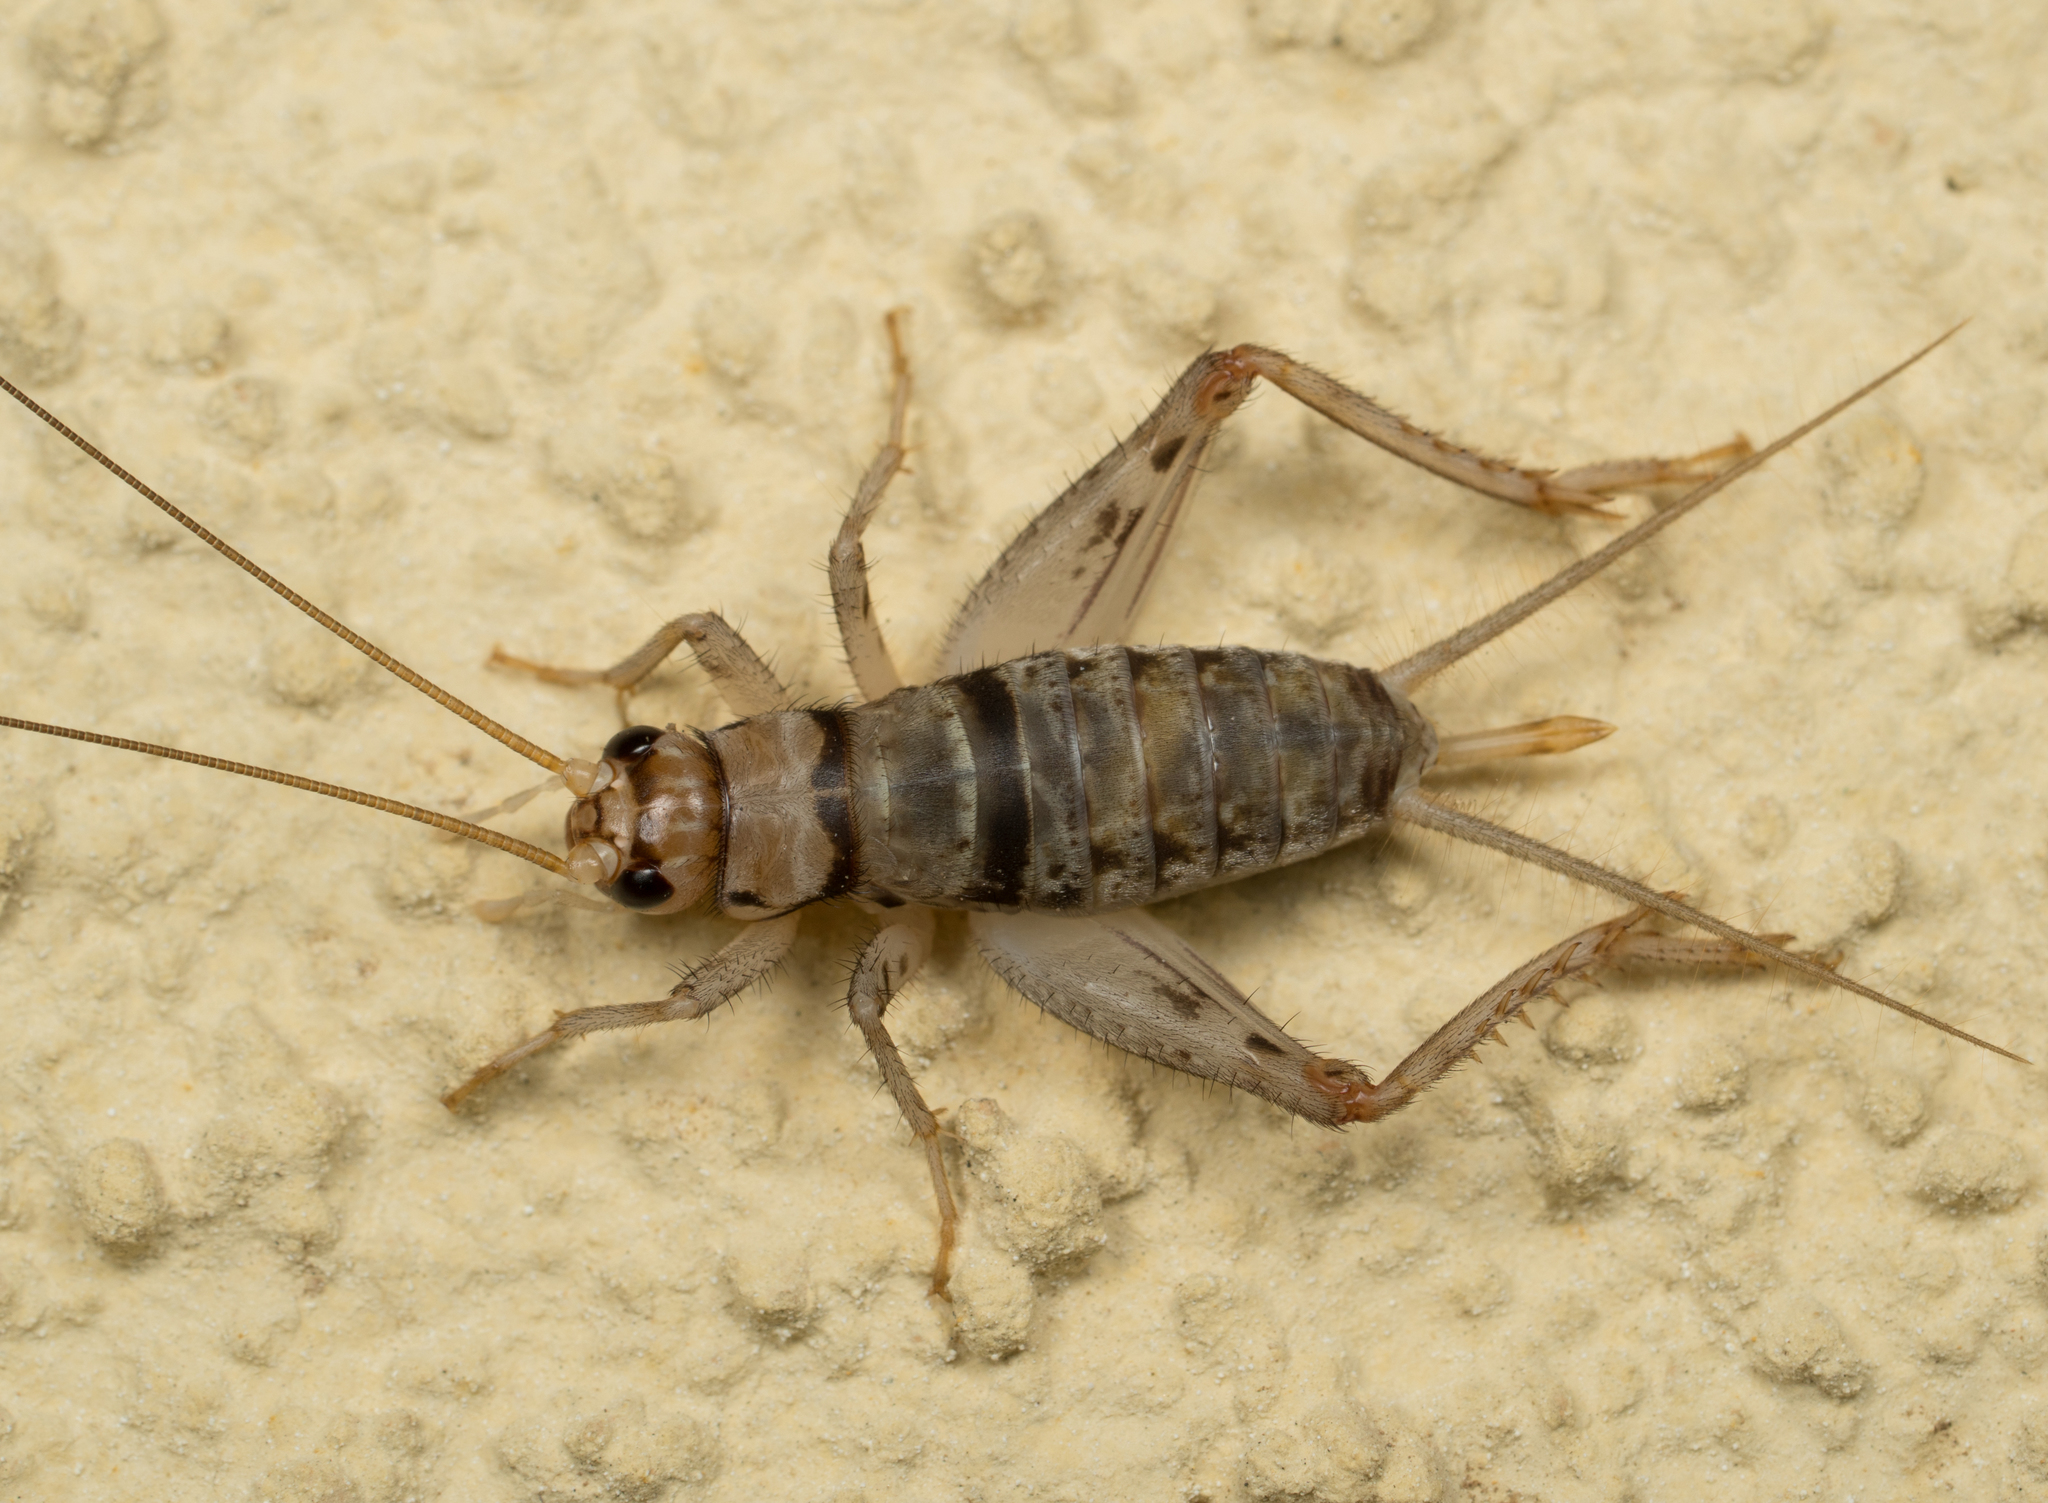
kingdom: Animalia
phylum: Arthropoda
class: Insecta
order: Orthoptera
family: Gryllidae
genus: Gryllodes
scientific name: Gryllodes sigillatus
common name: Tropical house cricket
